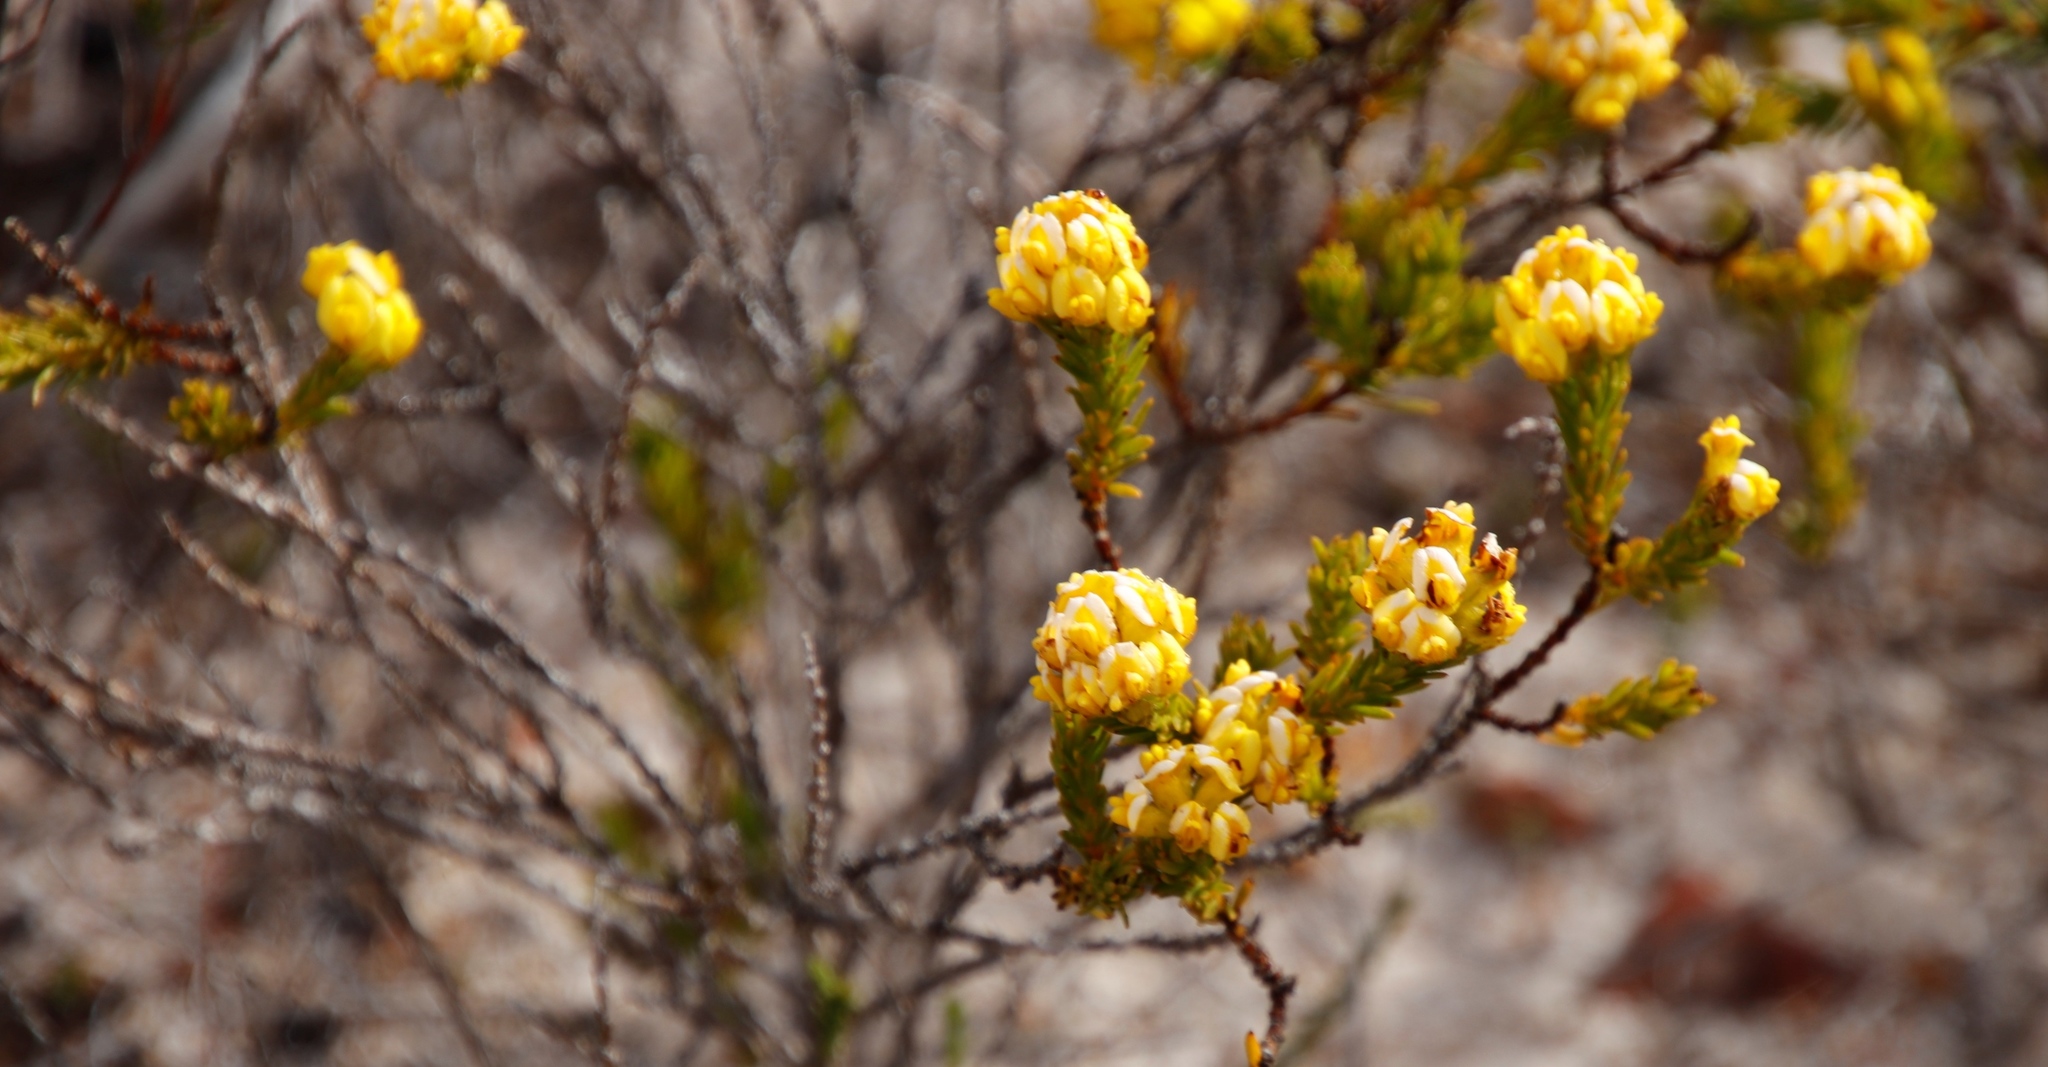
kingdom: Plantae
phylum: Tracheophyta
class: Magnoliopsida
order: Fabales
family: Fabaceae
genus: Aspalathus
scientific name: Aspalathus callosa
